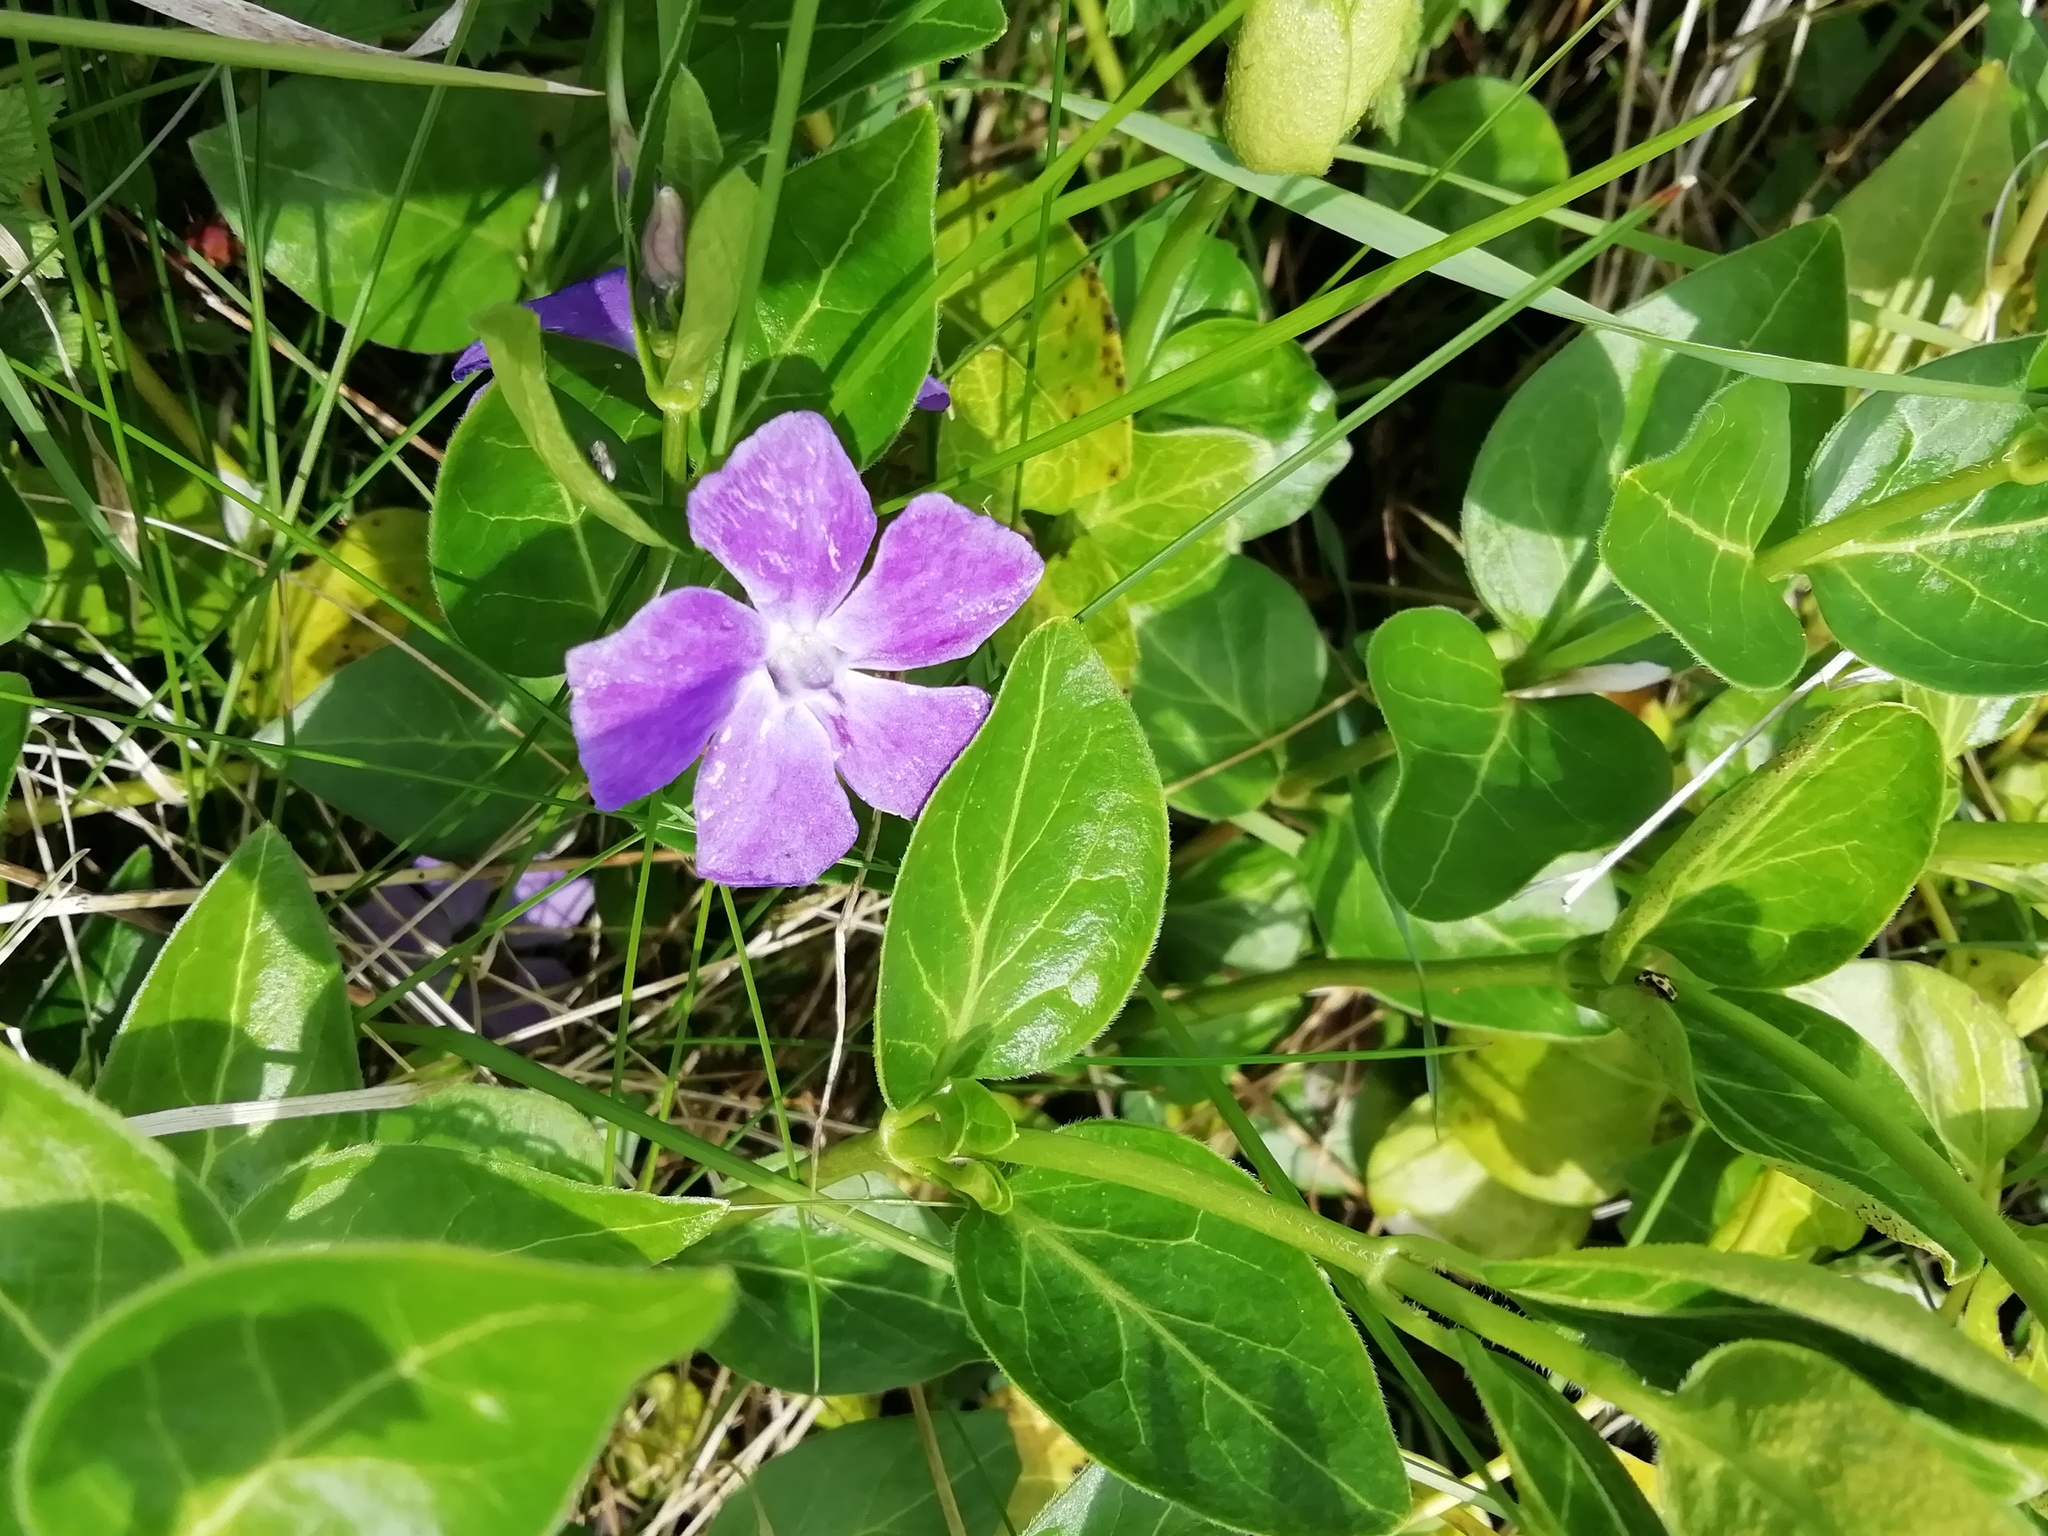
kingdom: Plantae
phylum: Tracheophyta
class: Magnoliopsida
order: Gentianales
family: Apocynaceae
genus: Vinca
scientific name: Vinca major
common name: Greater periwinkle
